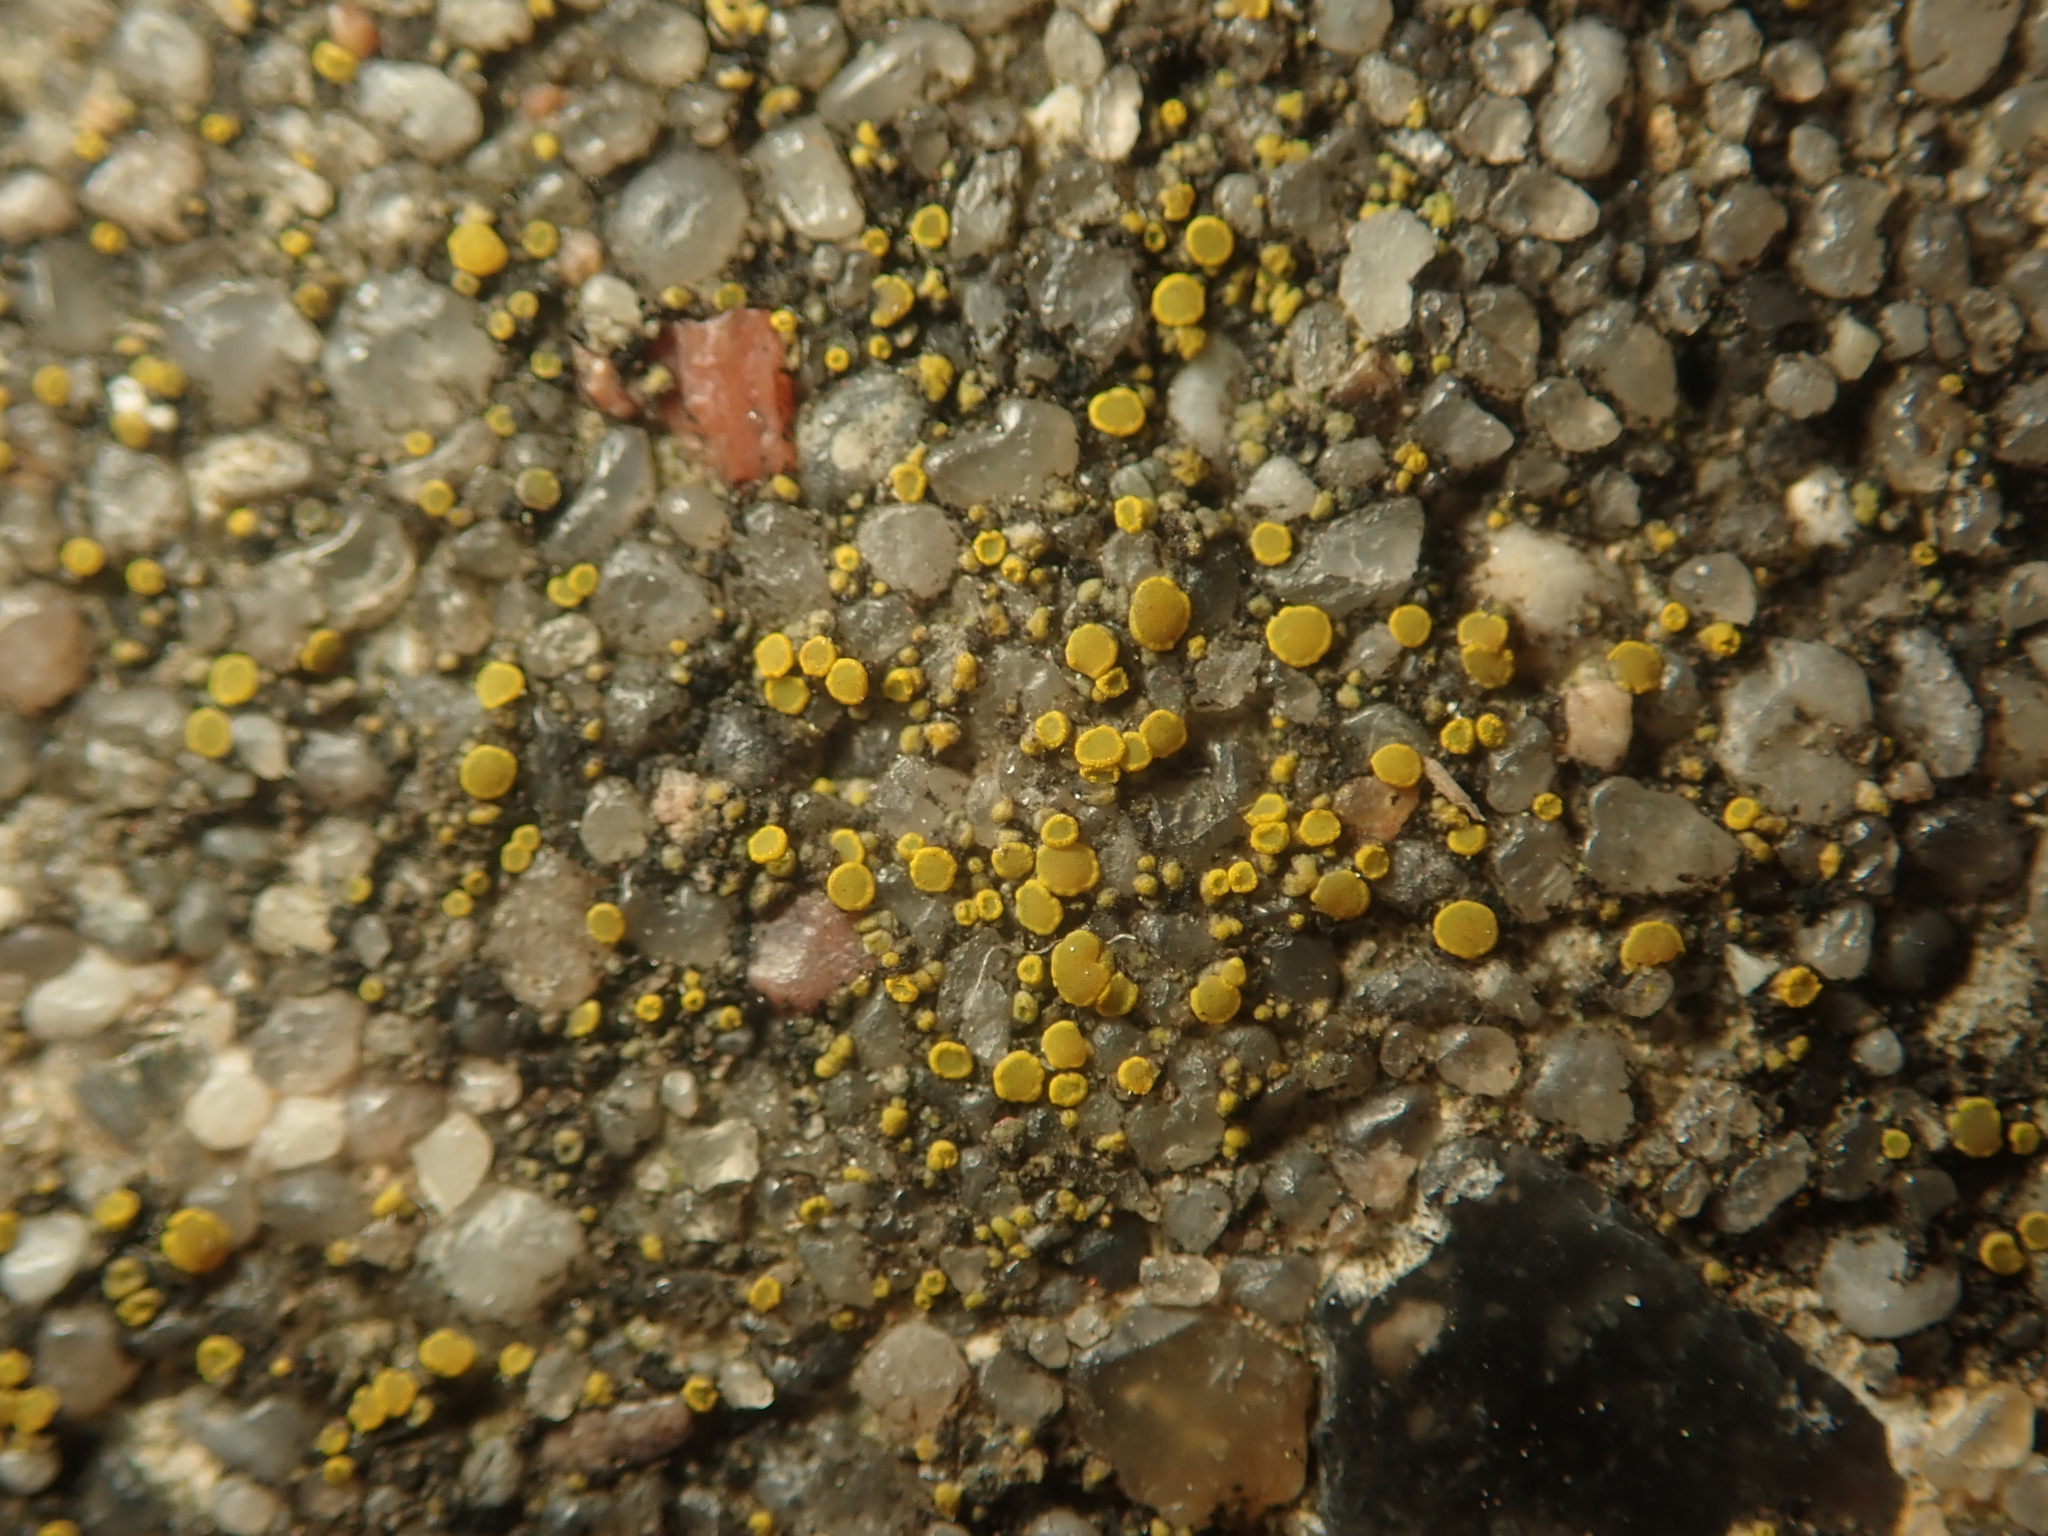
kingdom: Fungi
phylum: Ascomycota
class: Candelariomycetes
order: Candelariales
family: Candelariaceae
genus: Candelariella
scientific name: Candelariella aurella
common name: Hidden goldspeck lichen
